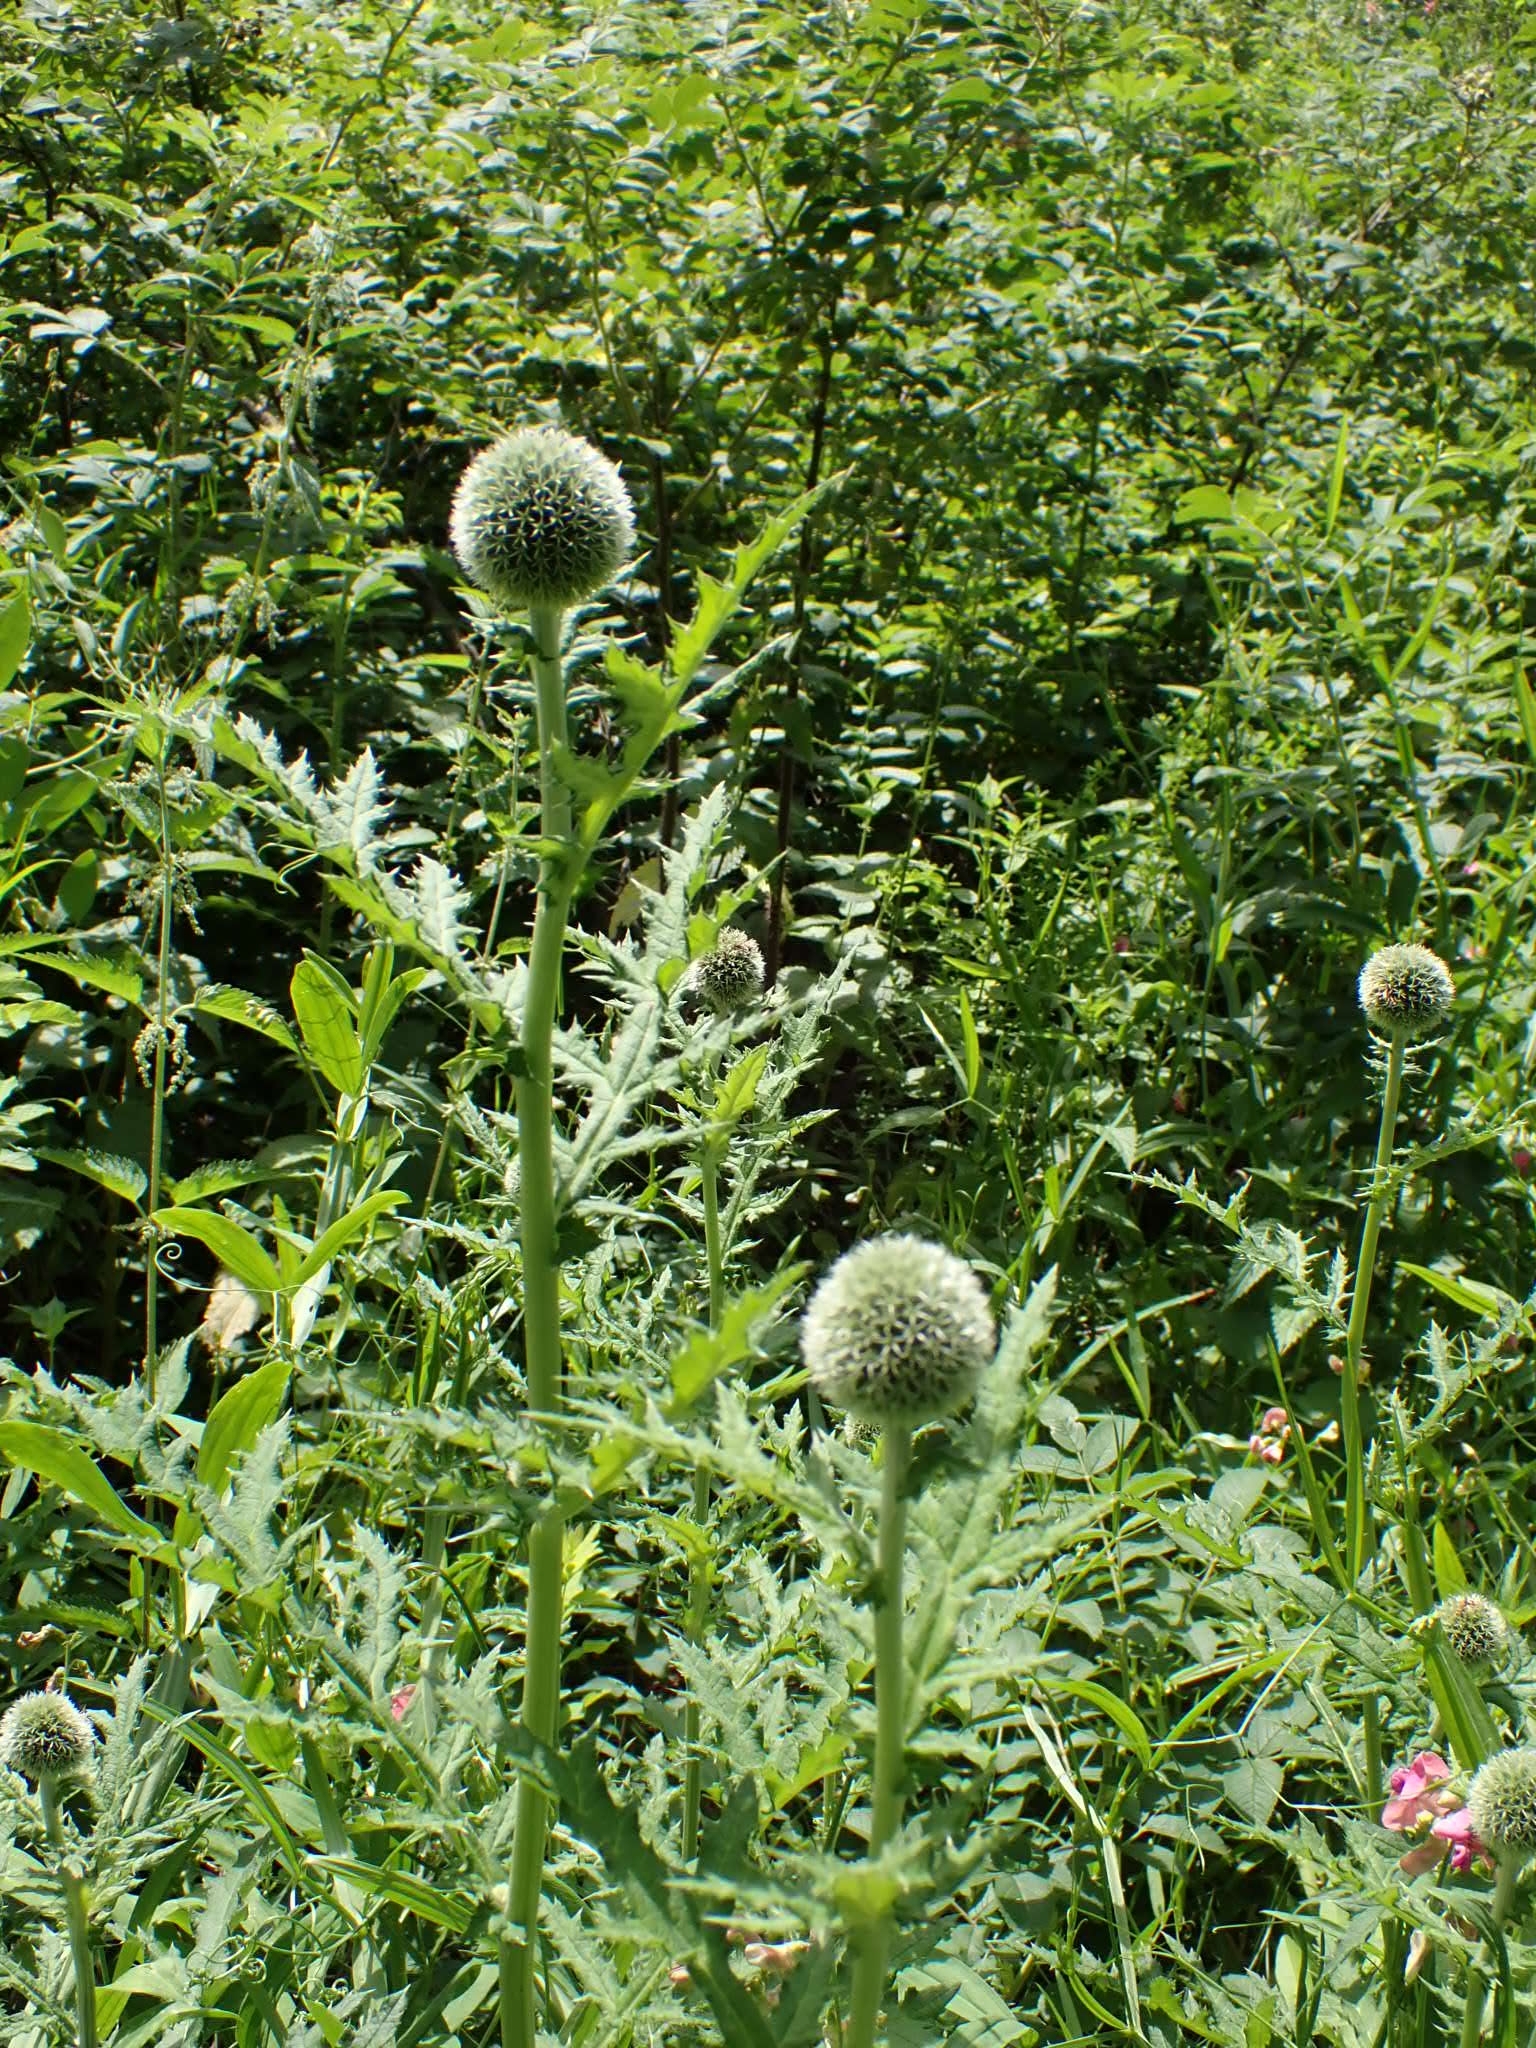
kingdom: Plantae
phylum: Tracheophyta
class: Magnoliopsida
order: Asterales
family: Asteraceae
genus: Echinops
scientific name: Echinops exaltatus
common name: Globe-thistle
